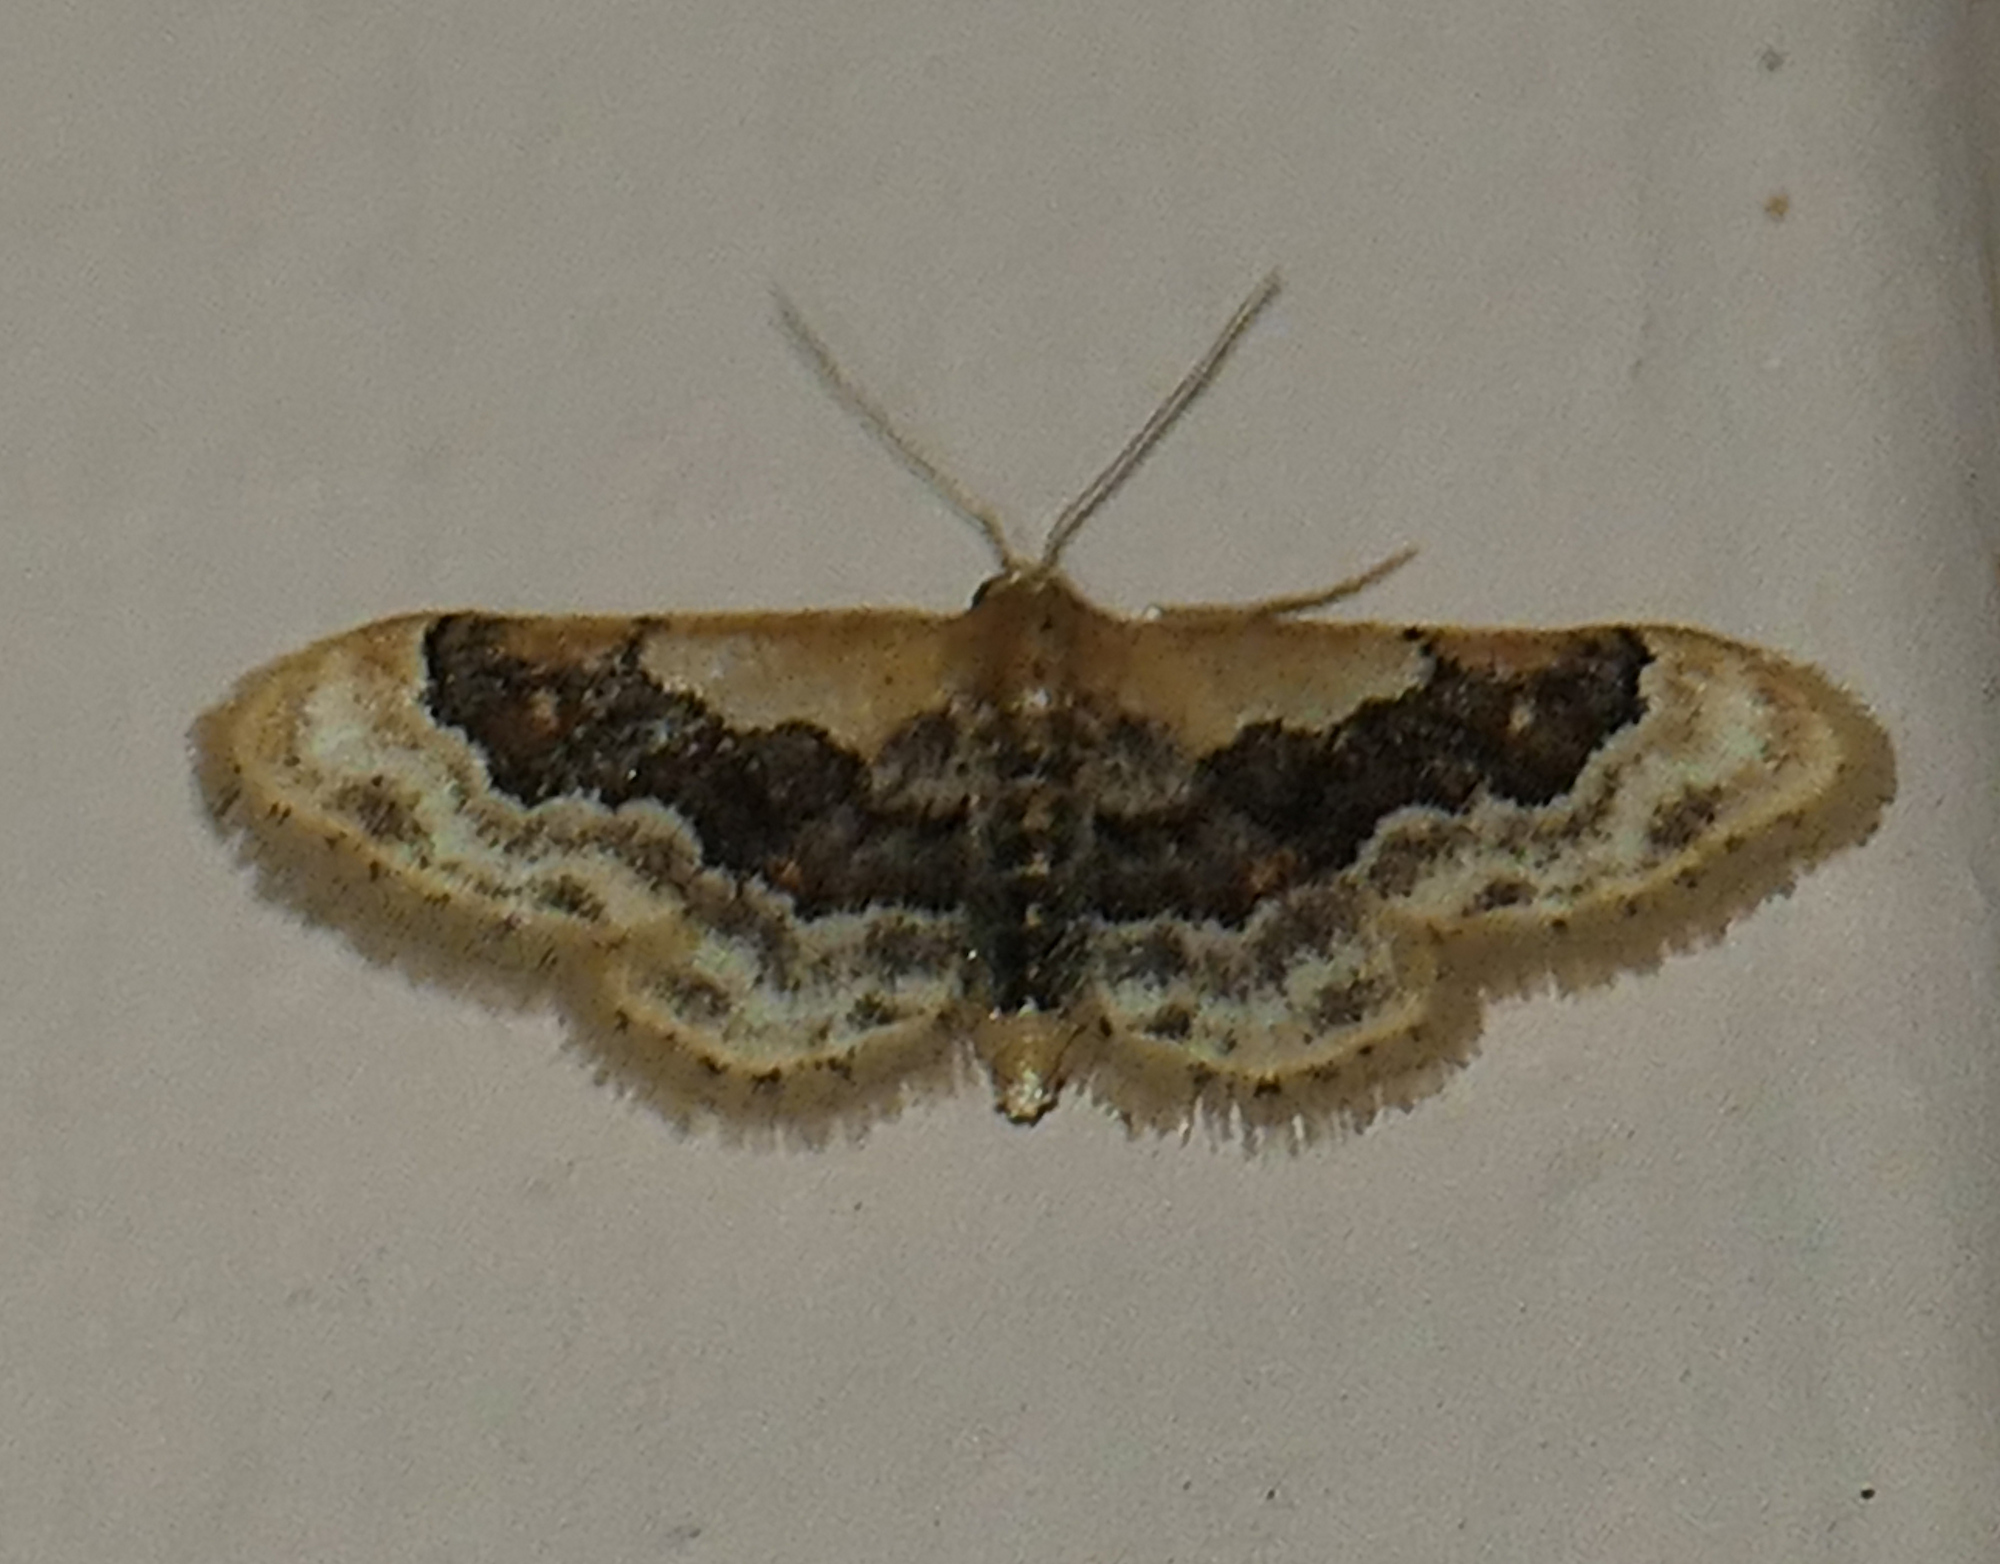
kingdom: Animalia
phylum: Arthropoda
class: Insecta
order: Lepidoptera
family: Geometridae
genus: Idaea
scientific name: Idaea gemmata
